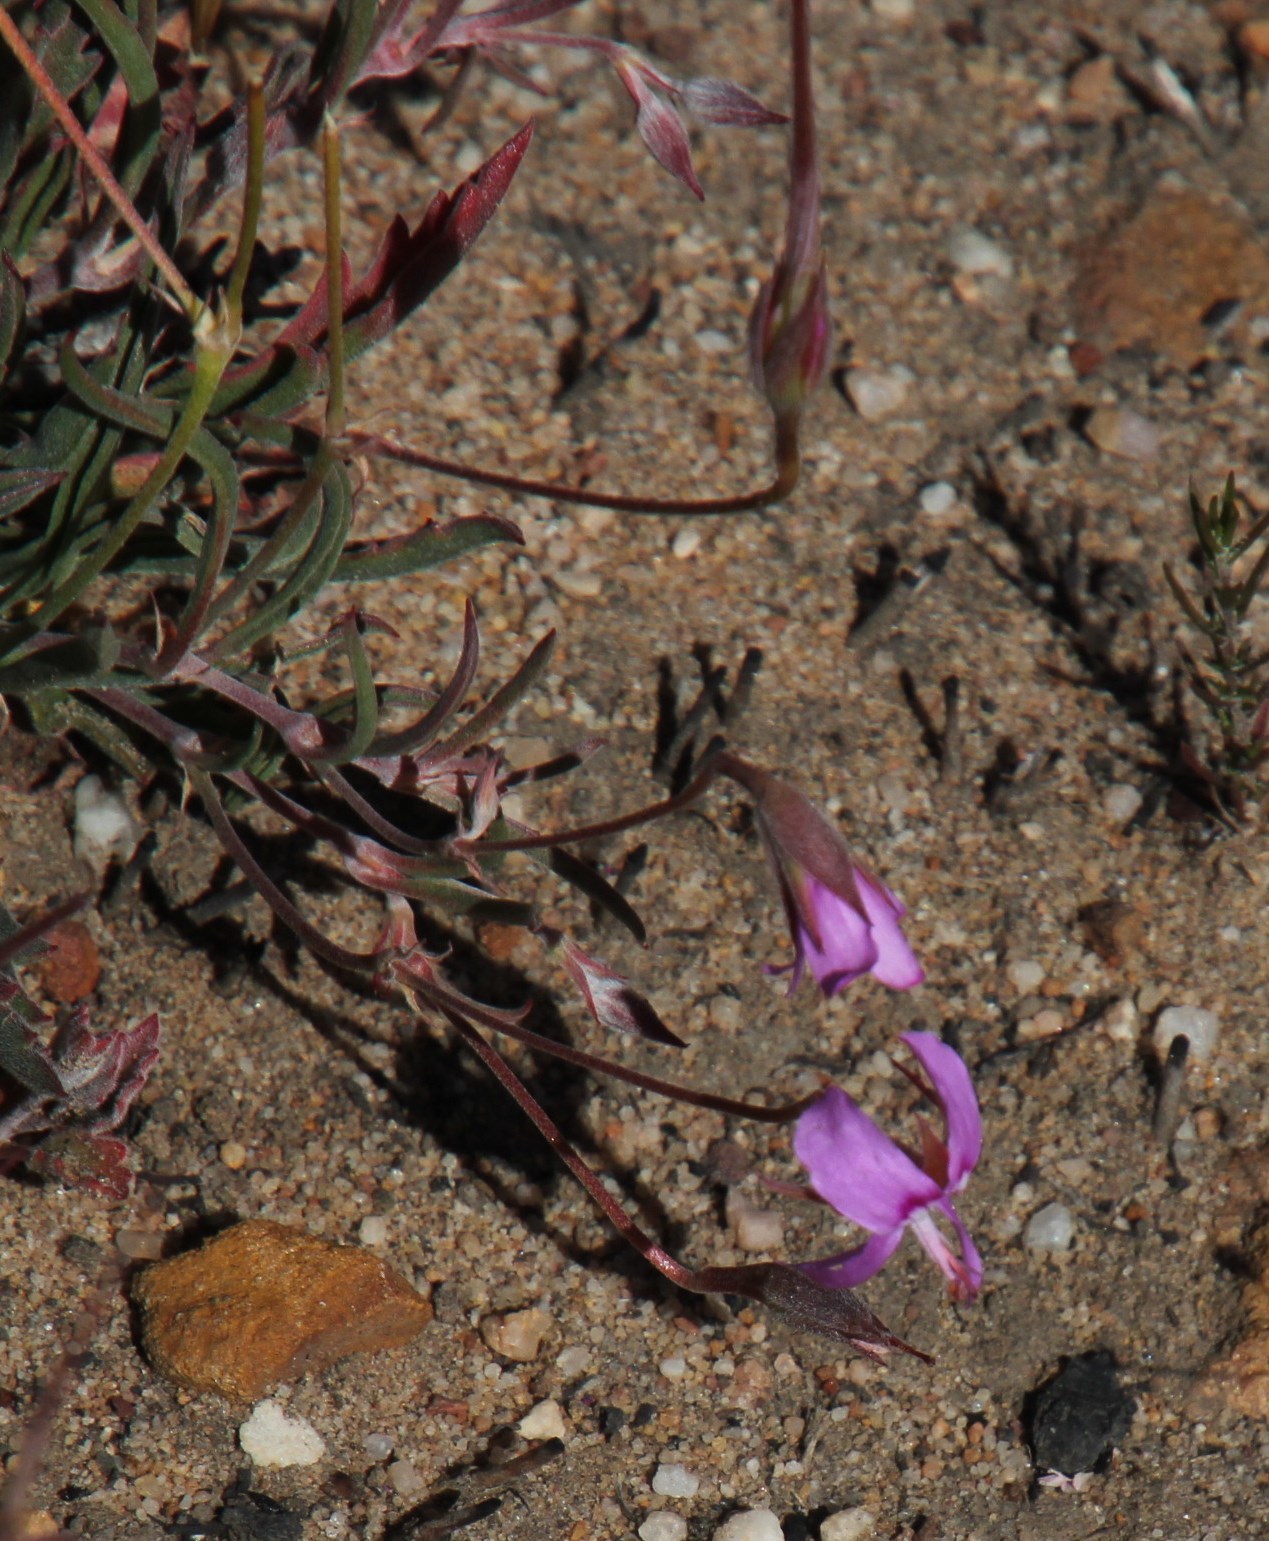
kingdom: Plantae
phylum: Tracheophyta
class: Magnoliopsida
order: Geraniales
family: Geraniaceae
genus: Pelargonium
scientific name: Pelargonium coronopifolium
